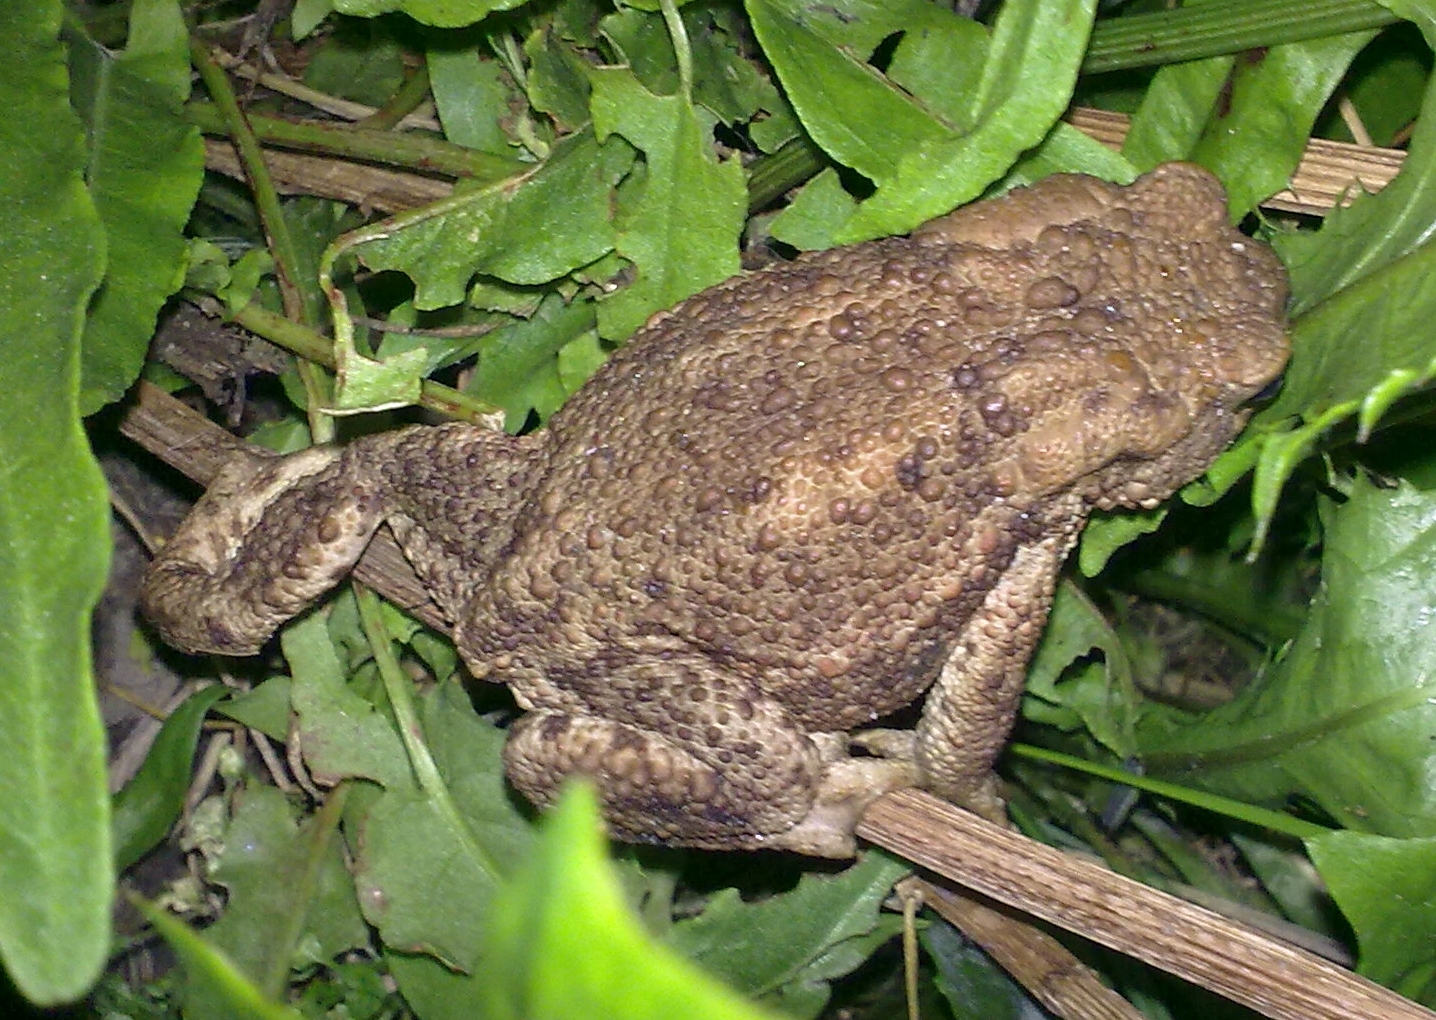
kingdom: Animalia
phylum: Chordata
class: Amphibia
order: Anura
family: Bufonidae
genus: Bufo
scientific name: Bufo bufo
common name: Common toad
